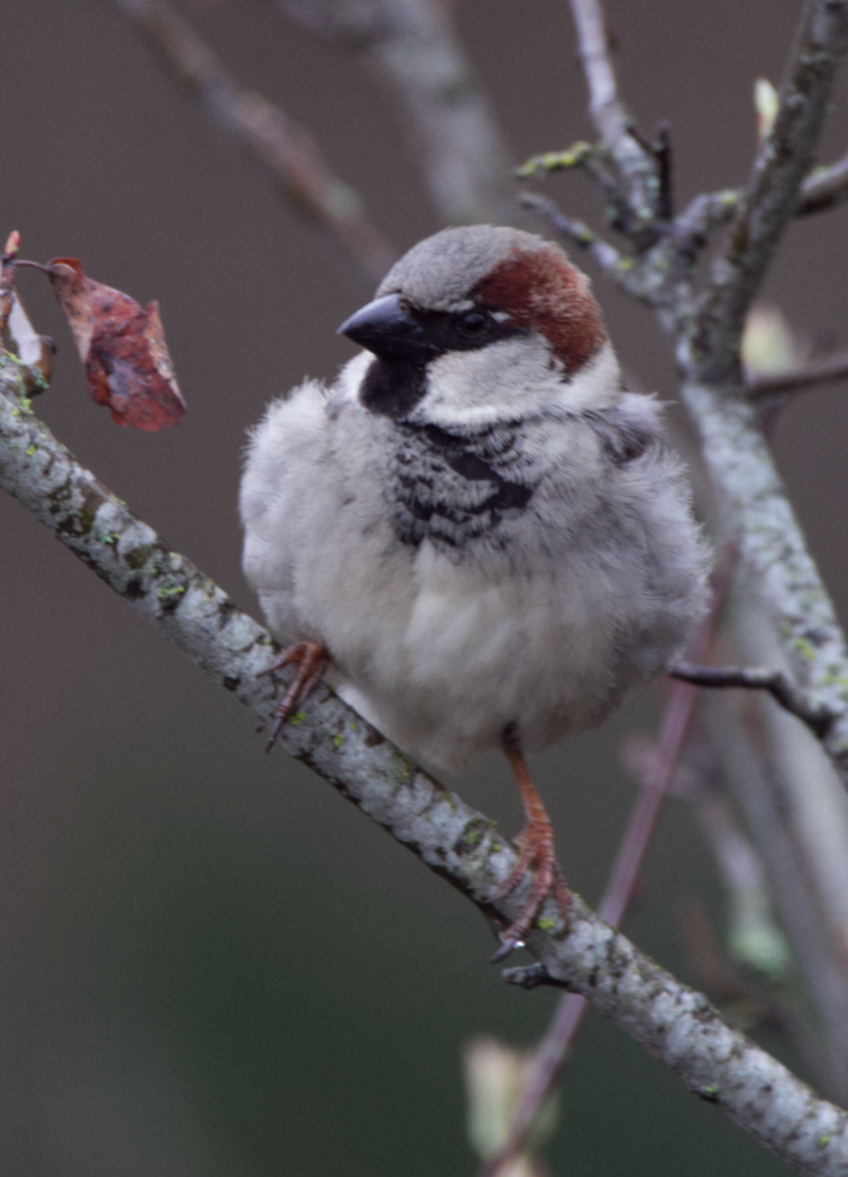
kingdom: Animalia
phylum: Chordata
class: Aves
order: Passeriformes
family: Passeridae
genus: Passer
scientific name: Passer domesticus
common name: House sparrow
